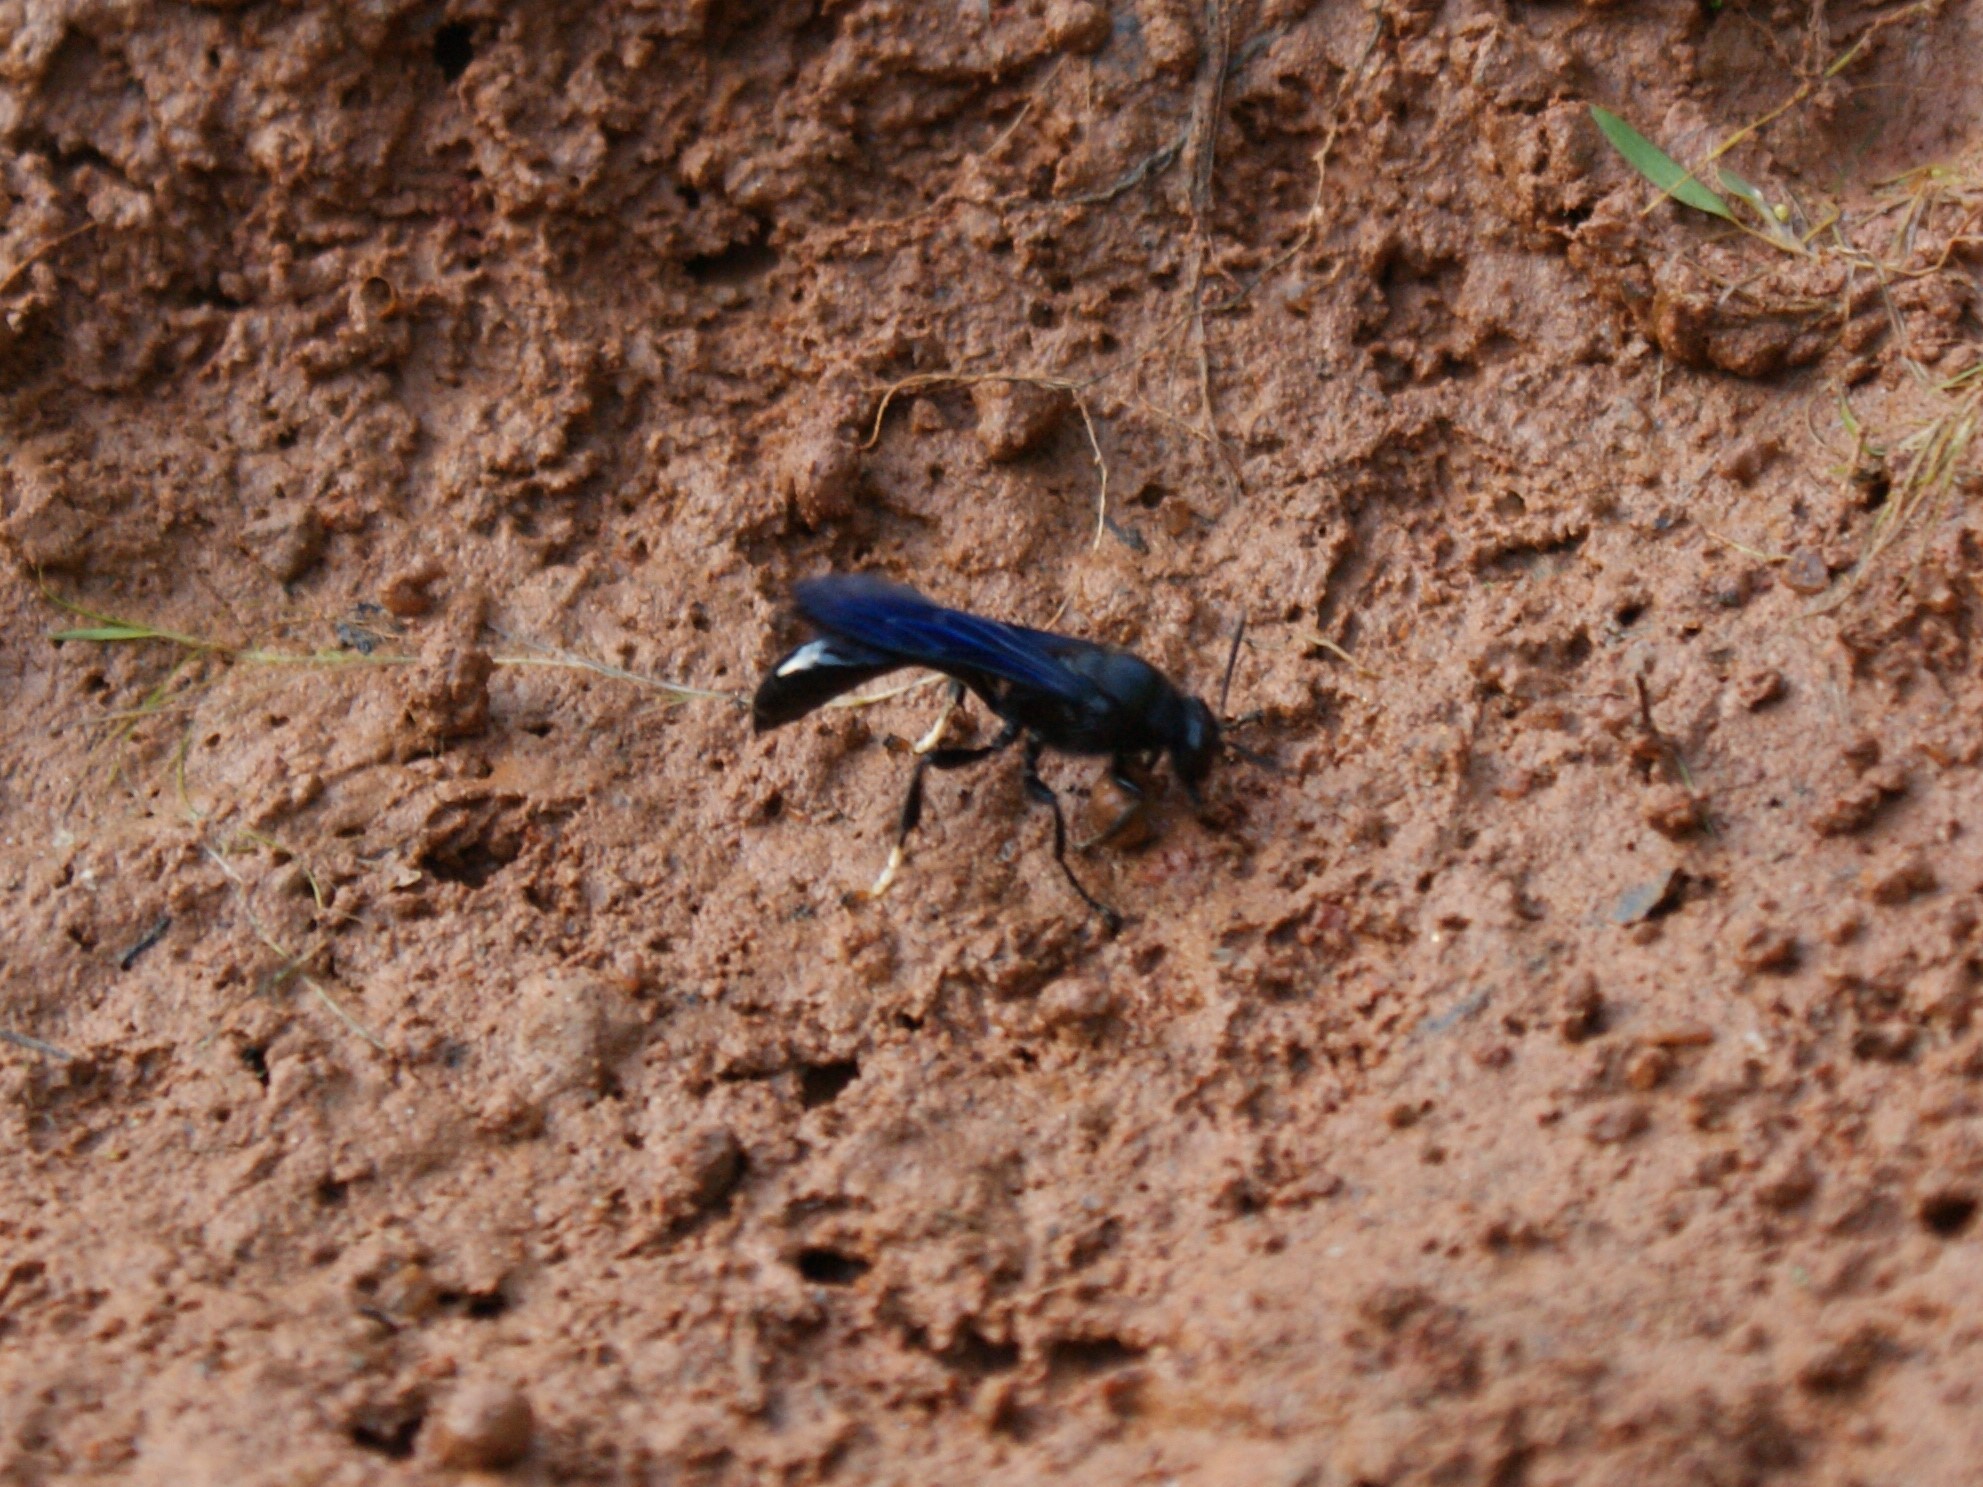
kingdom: Animalia
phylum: Arthropoda
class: Insecta
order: Hymenoptera
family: Crabronidae
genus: Trypoxylon
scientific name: Trypoxylon politum
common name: Organ-pipe mud-dauber wasp
